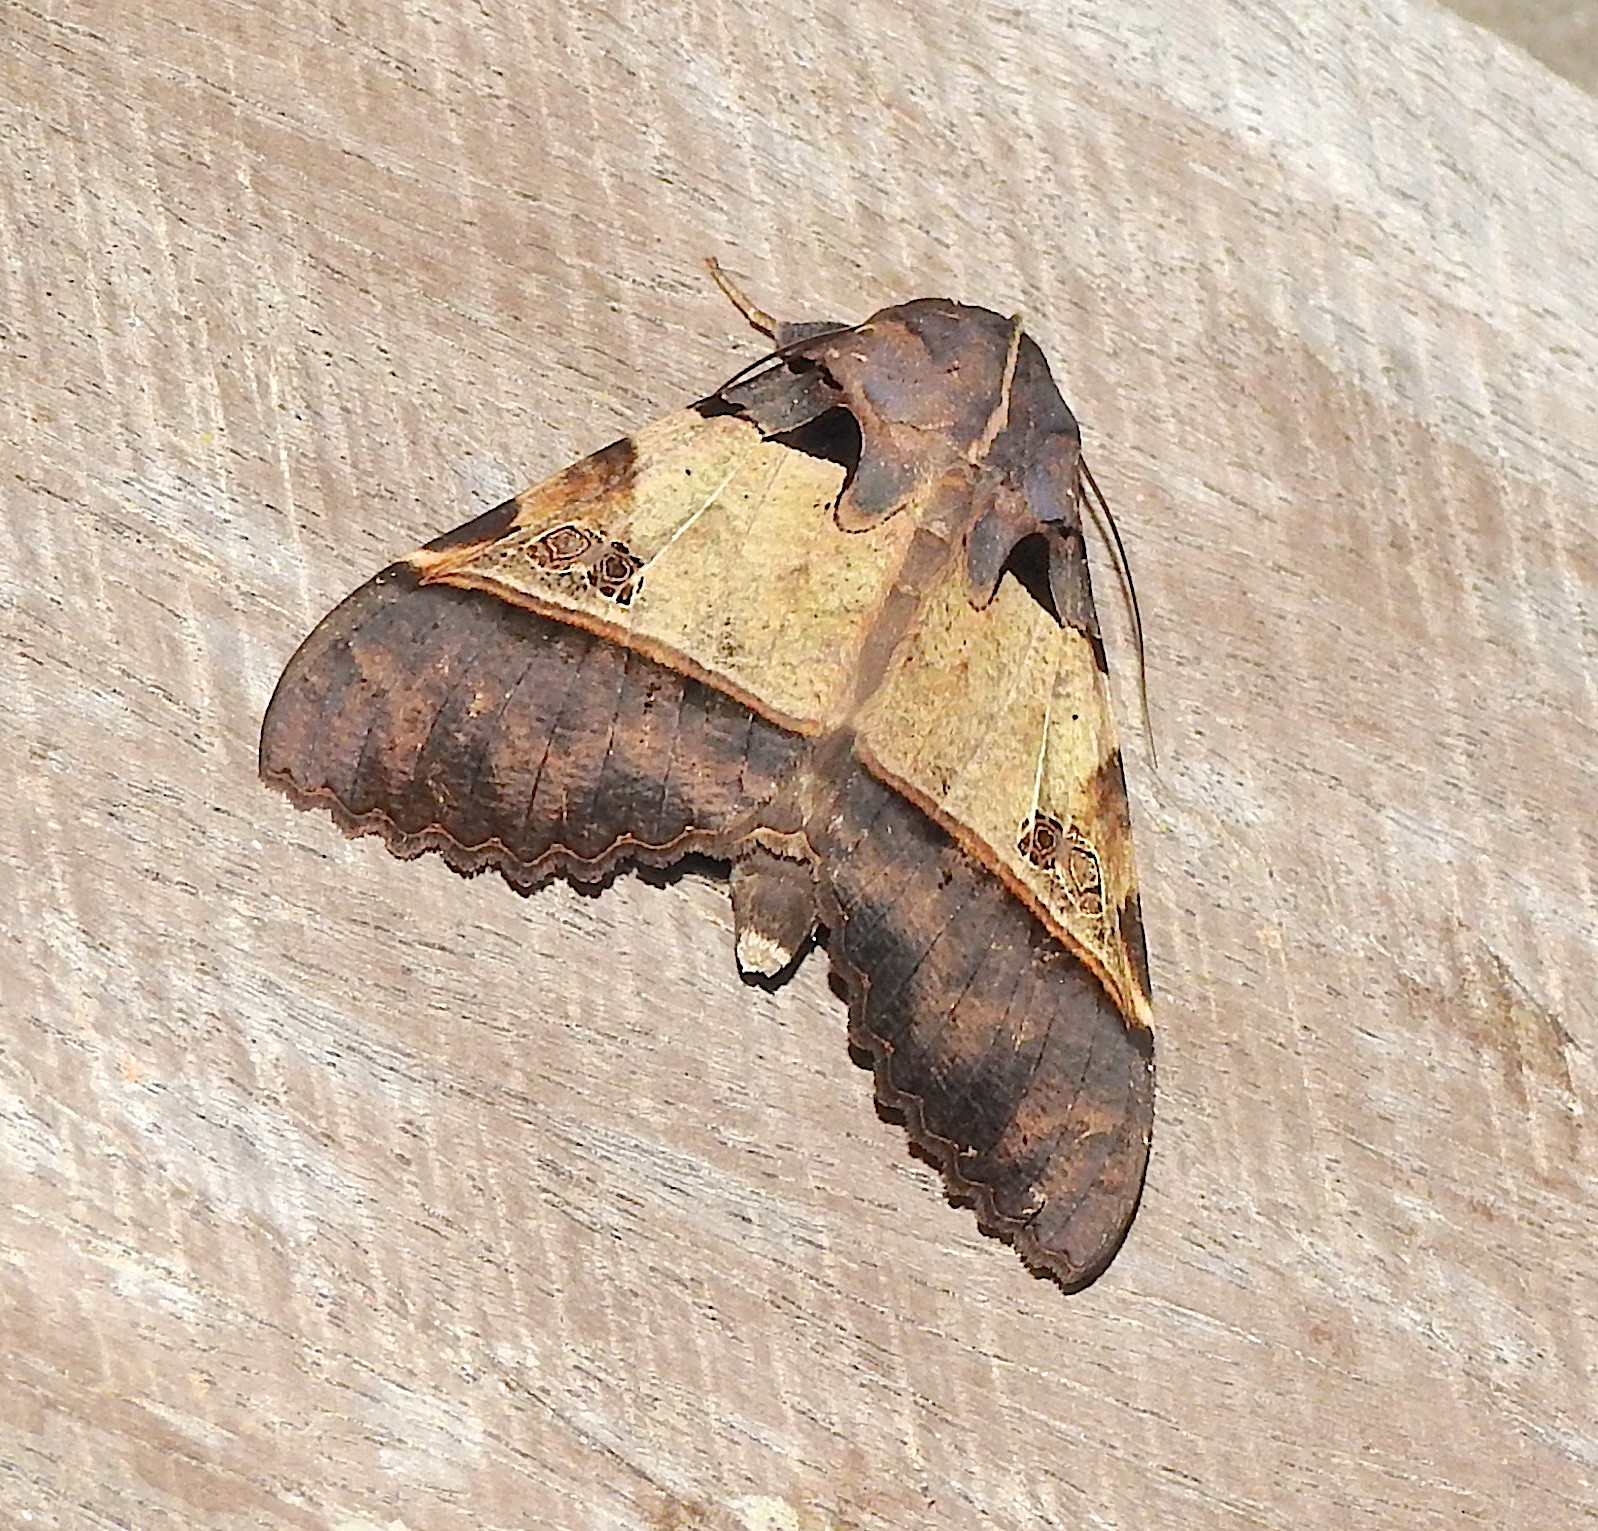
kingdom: Animalia
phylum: Arthropoda
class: Insecta
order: Lepidoptera
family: Erebidae
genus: Serrodes
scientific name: Serrodes campana
